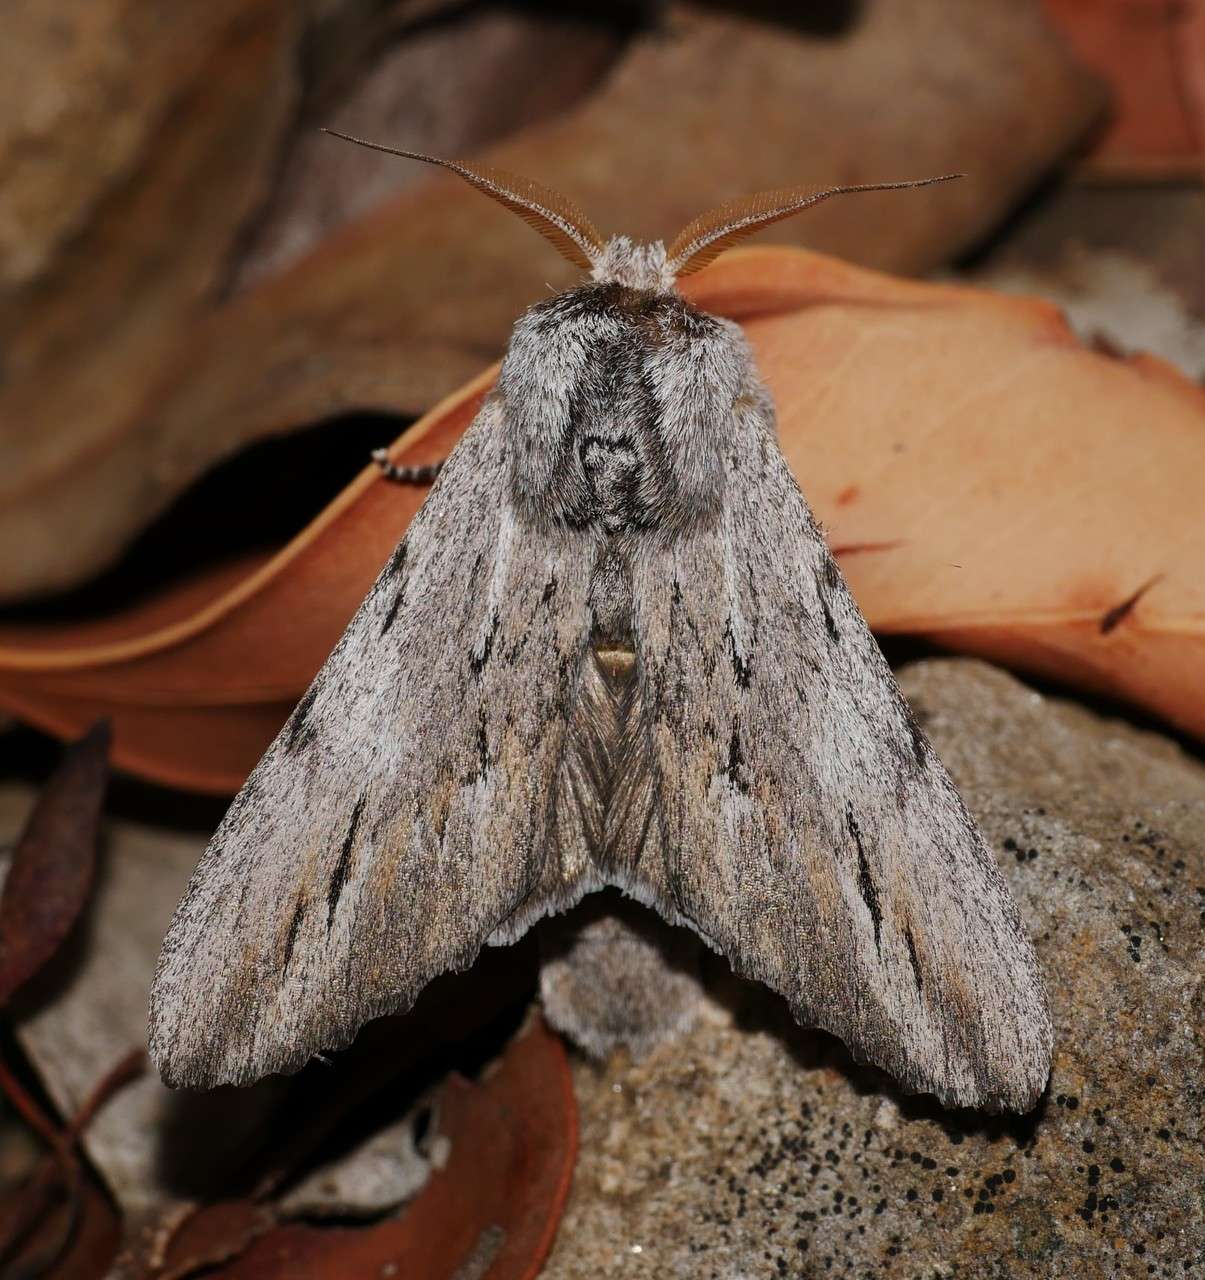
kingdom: Animalia
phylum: Arthropoda
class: Insecta
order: Lepidoptera
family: Notodontidae
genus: Destolmia
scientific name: Destolmia lineata
